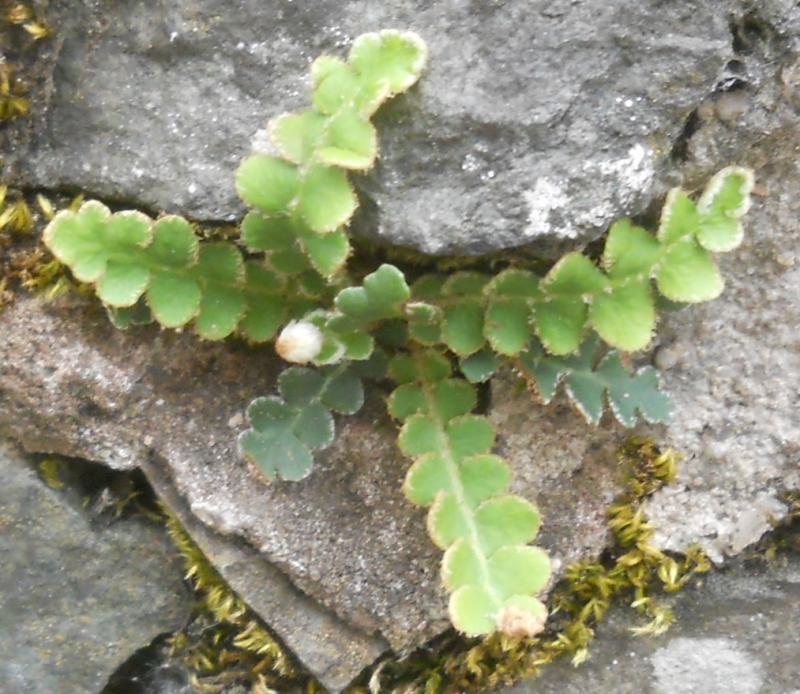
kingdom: Plantae
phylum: Tracheophyta
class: Polypodiopsida
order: Polypodiales
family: Aspleniaceae
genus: Asplenium
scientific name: Asplenium ceterach
